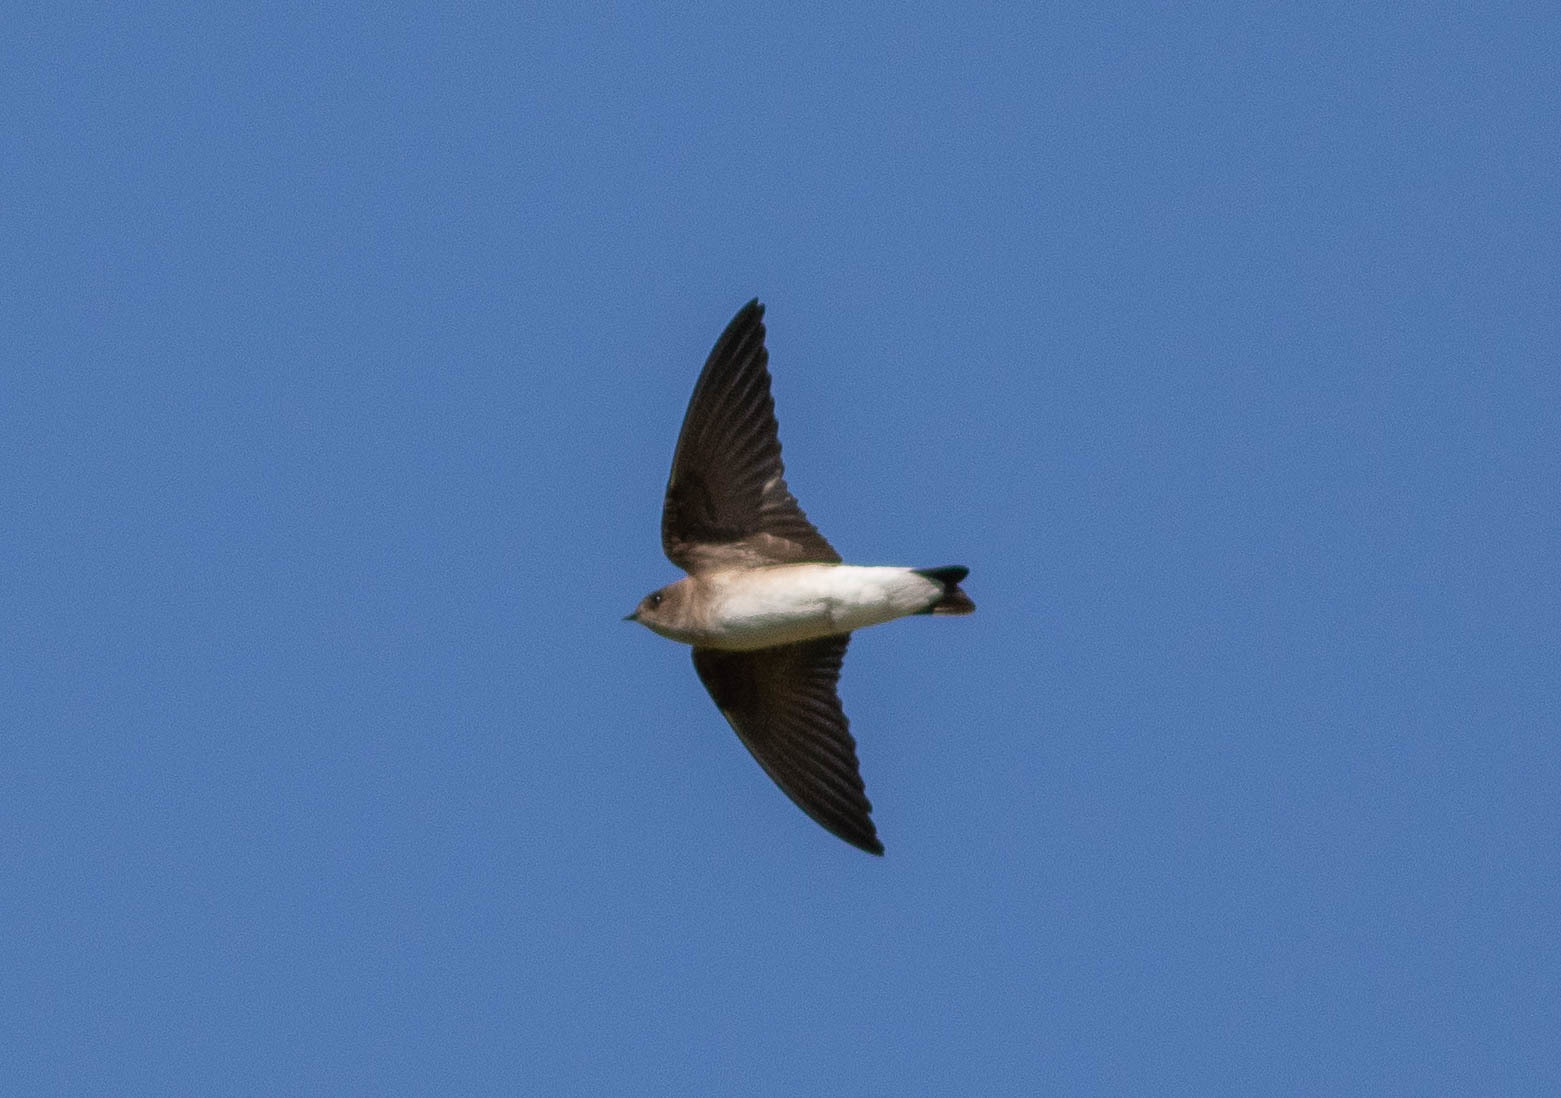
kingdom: Animalia
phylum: Chordata
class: Aves
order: Passeriformes
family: Hirundinidae
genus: Stelgidopteryx
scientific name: Stelgidopteryx serripennis
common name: Northern rough-winged swallow
